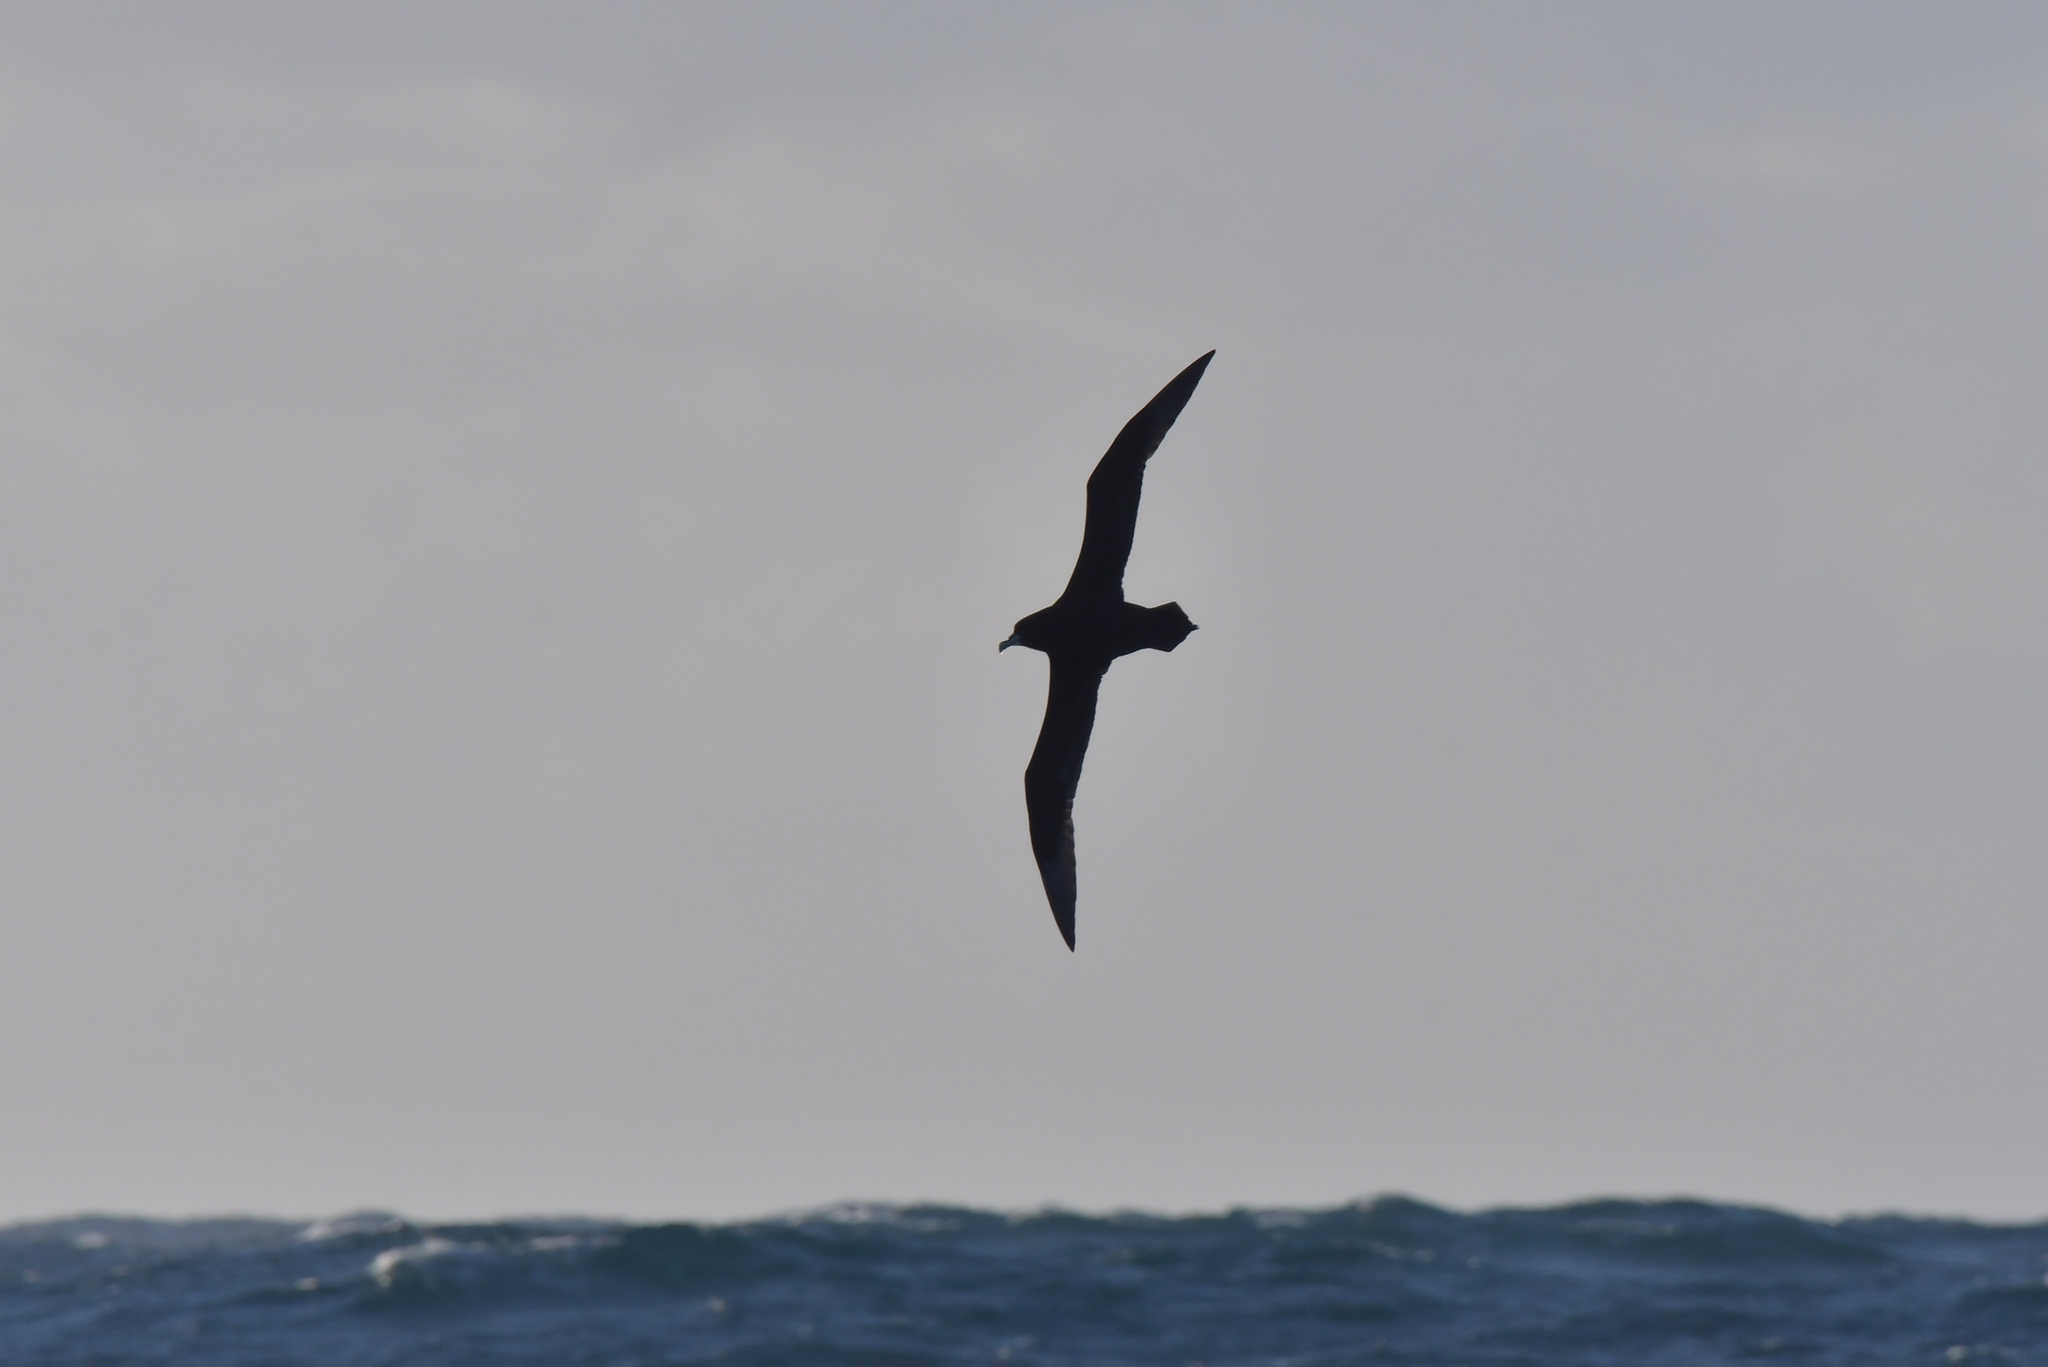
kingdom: Animalia
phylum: Chordata
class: Aves
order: Procellariiformes
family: Procellariidae
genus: Procellaria
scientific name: Procellaria aequinoctialis
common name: White-chinned petrel
